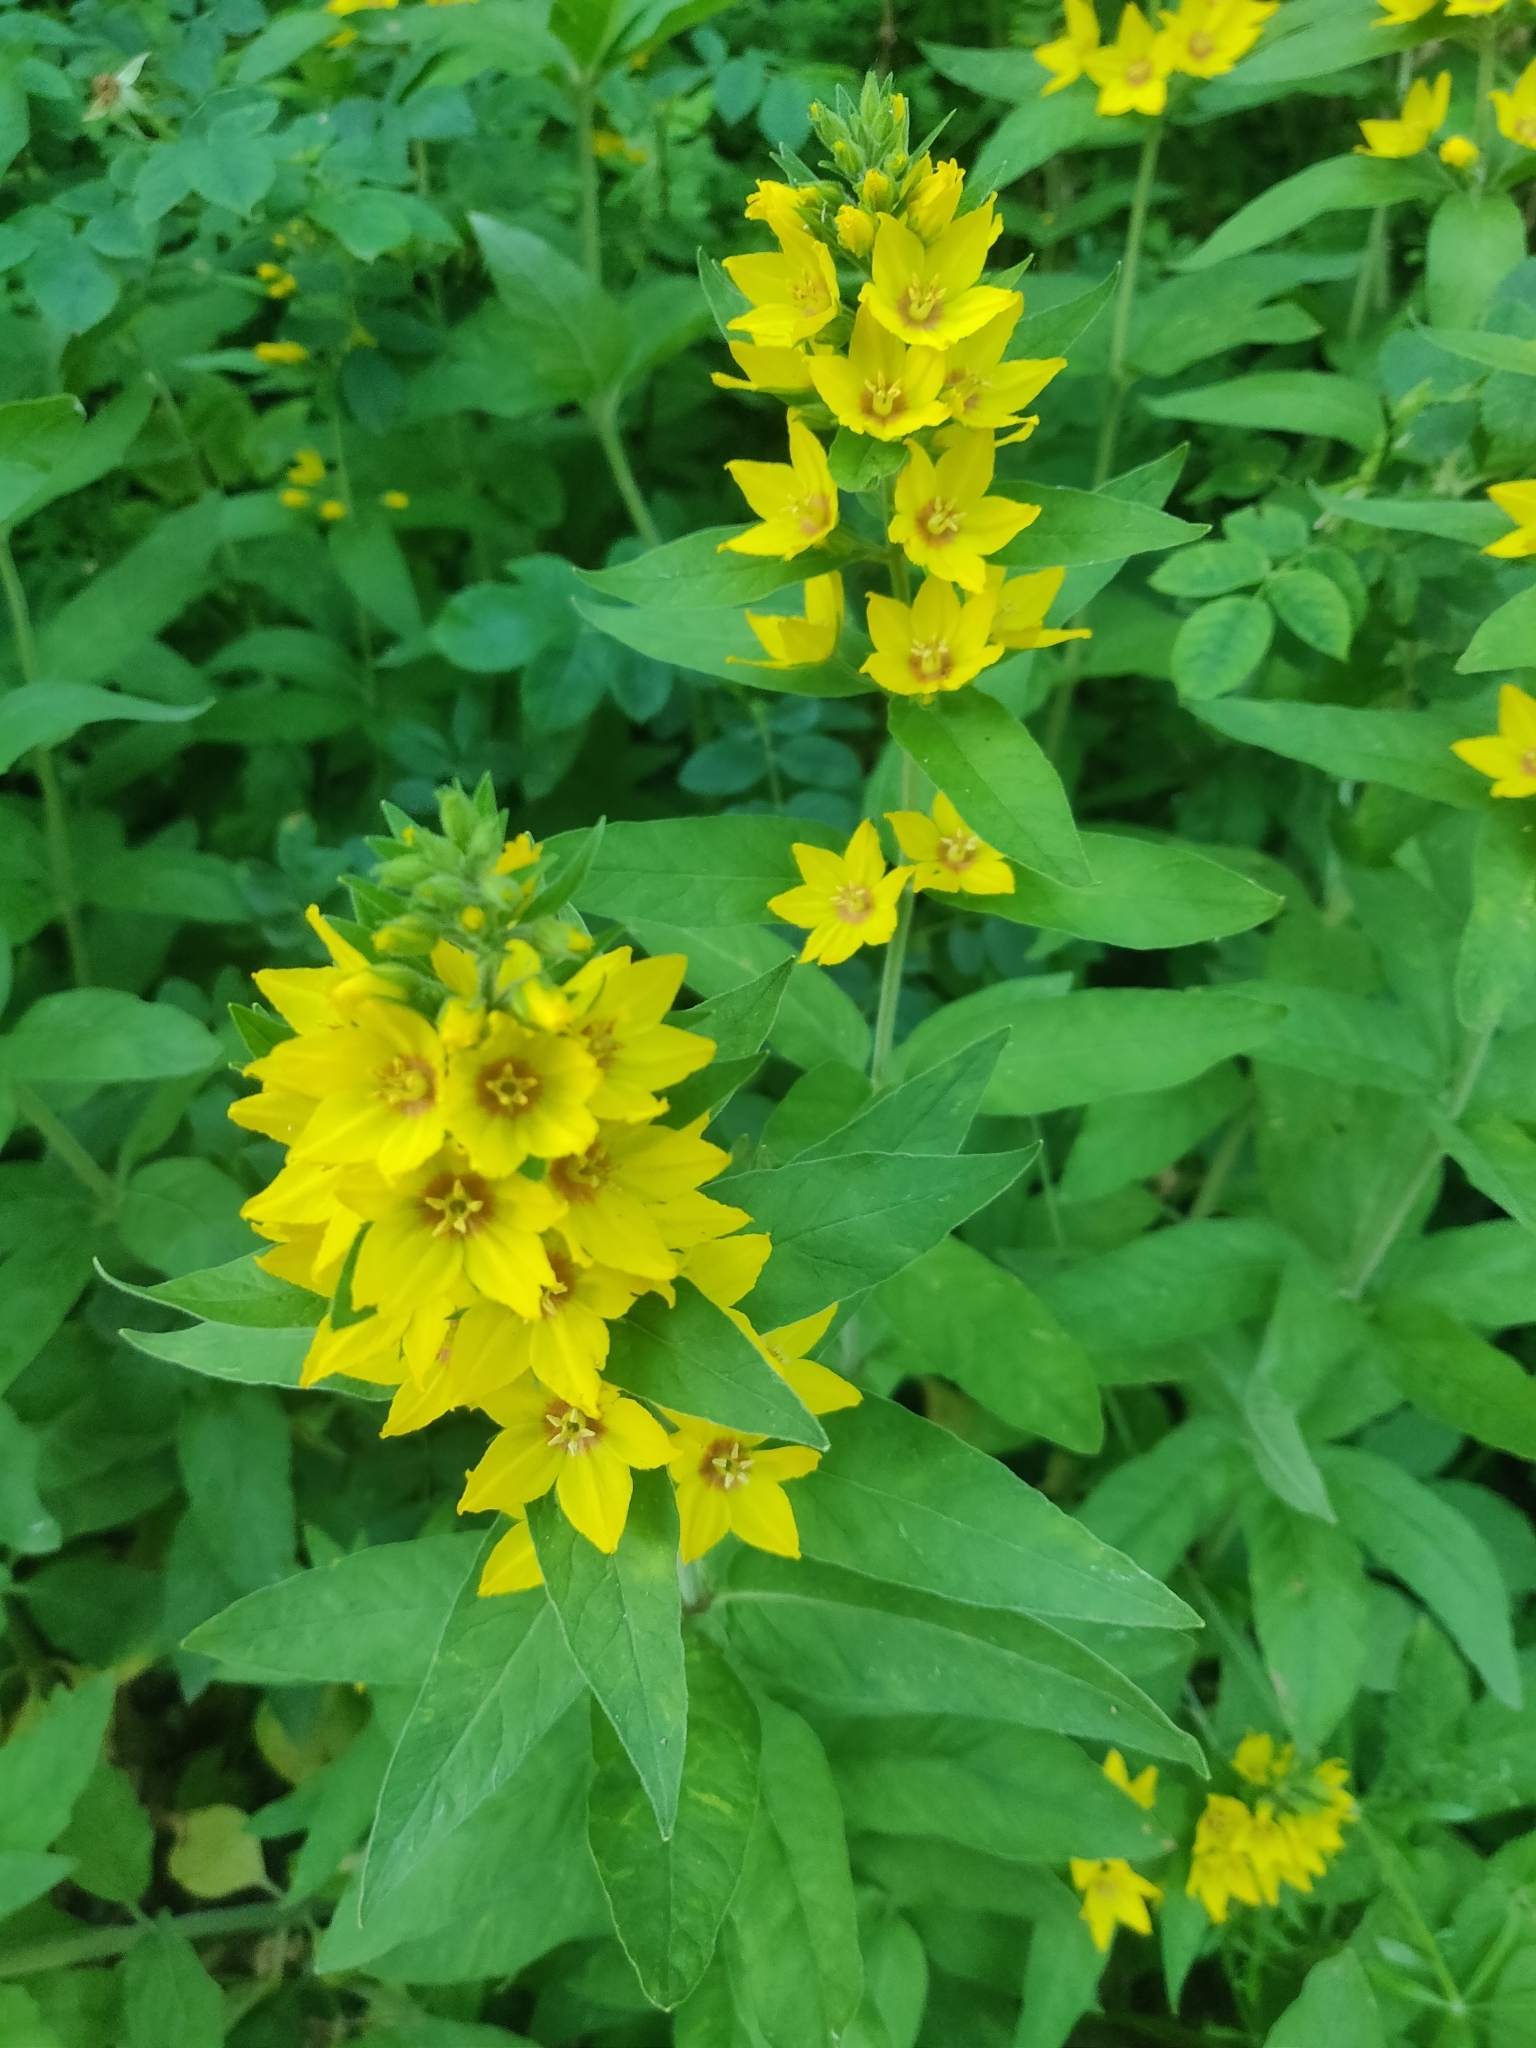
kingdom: Plantae
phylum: Tracheophyta
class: Magnoliopsida
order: Ericales
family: Primulaceae
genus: Lysimachia
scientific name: Lysimachia punctata
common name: Dotted loosestrife
